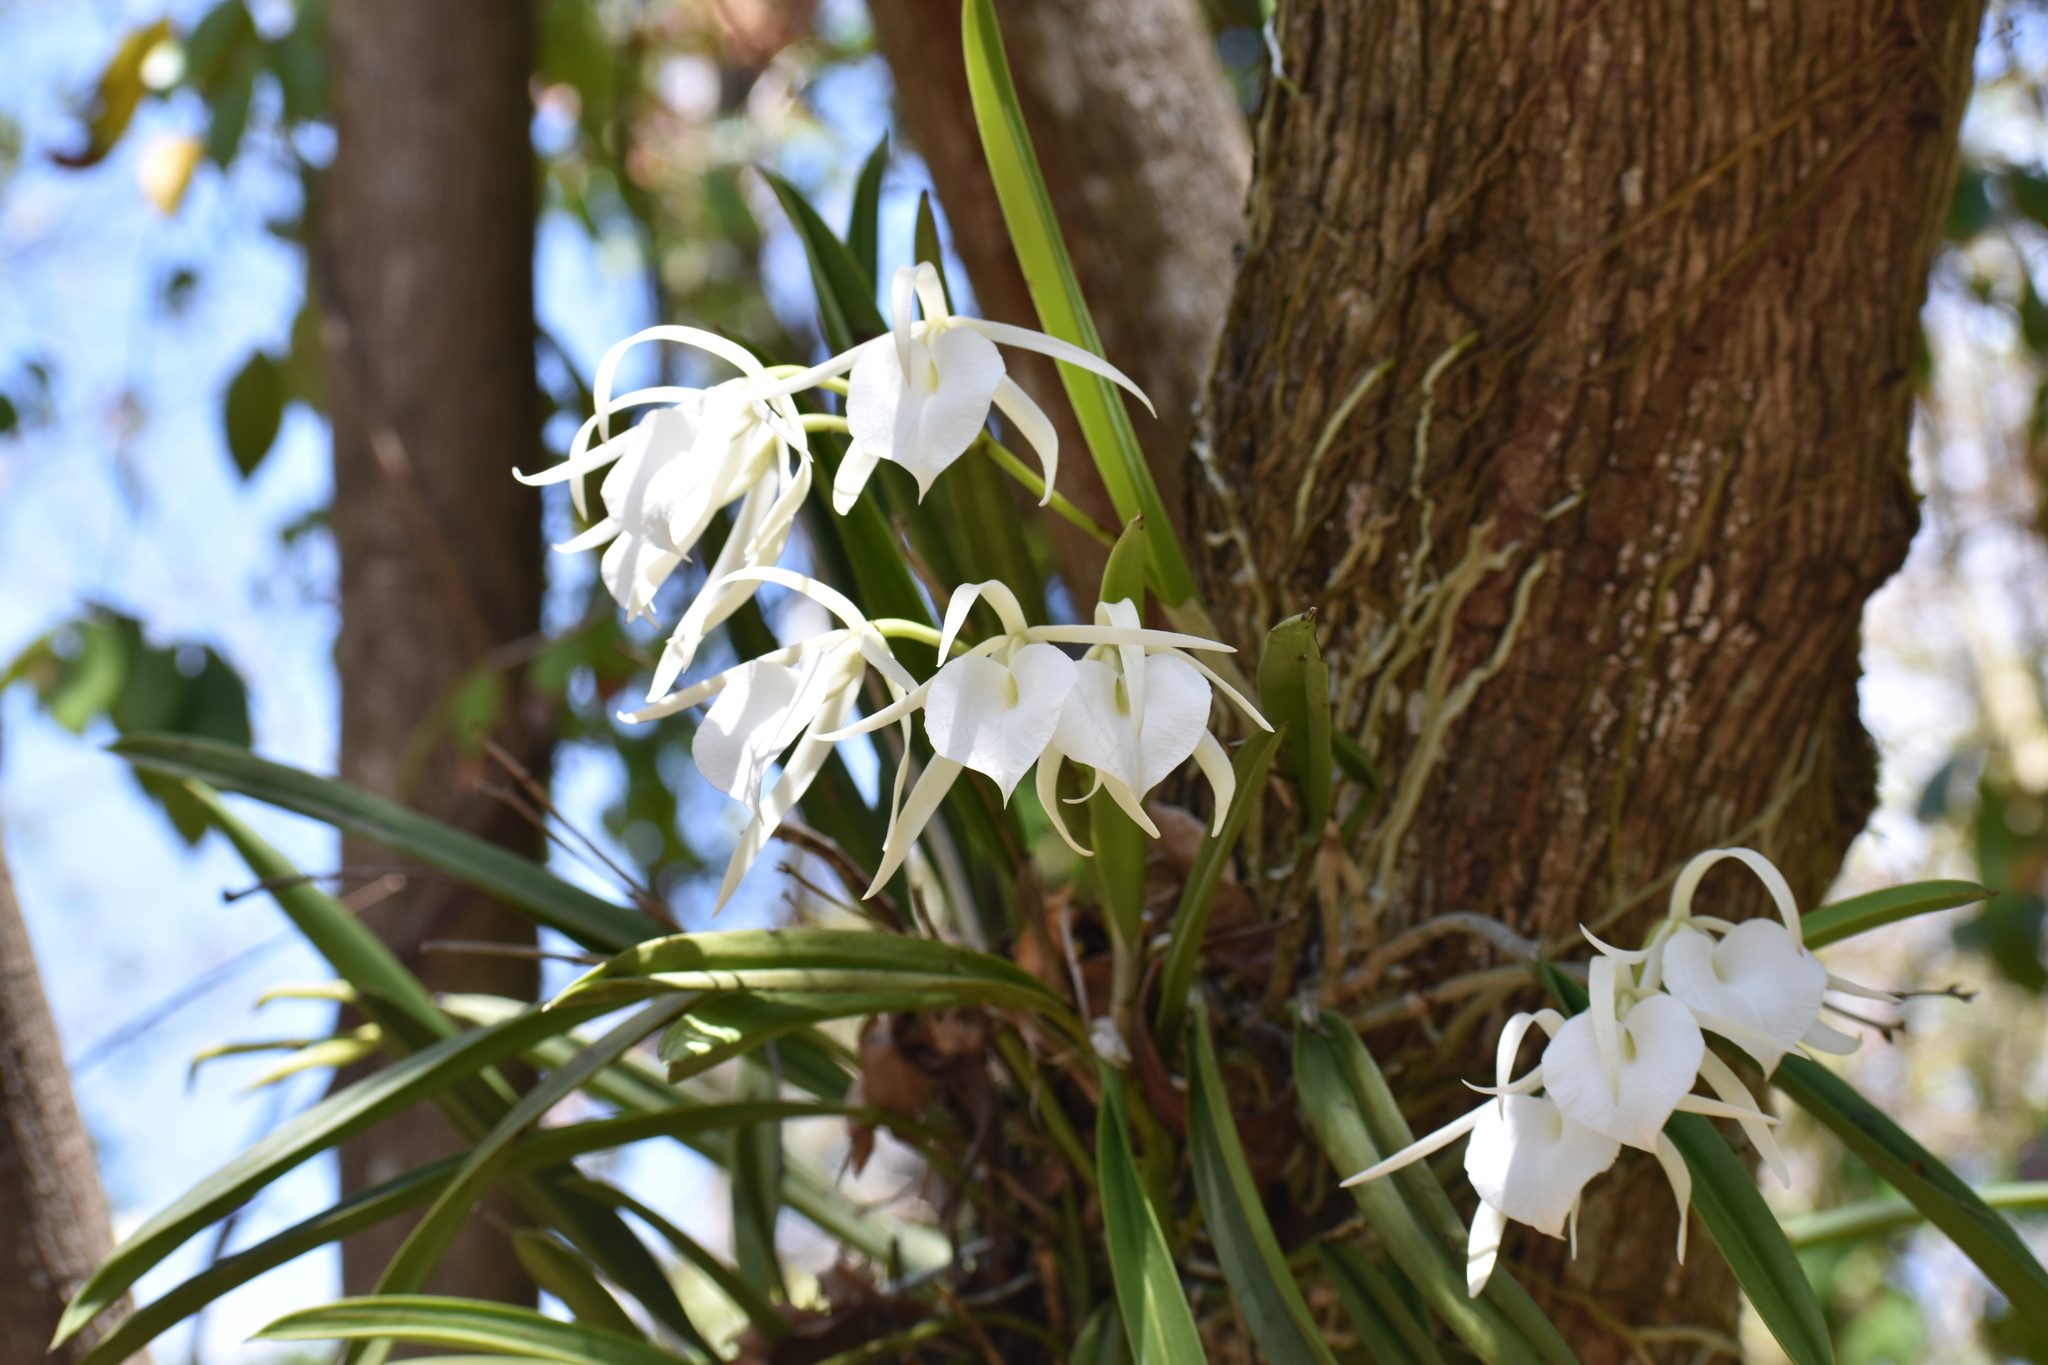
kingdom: Plantae
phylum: Tracheophyta
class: Liliopsida
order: Asparagales
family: Orchidaceae
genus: Brassavola
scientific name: Brassavola nodosa
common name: Lady of the night
